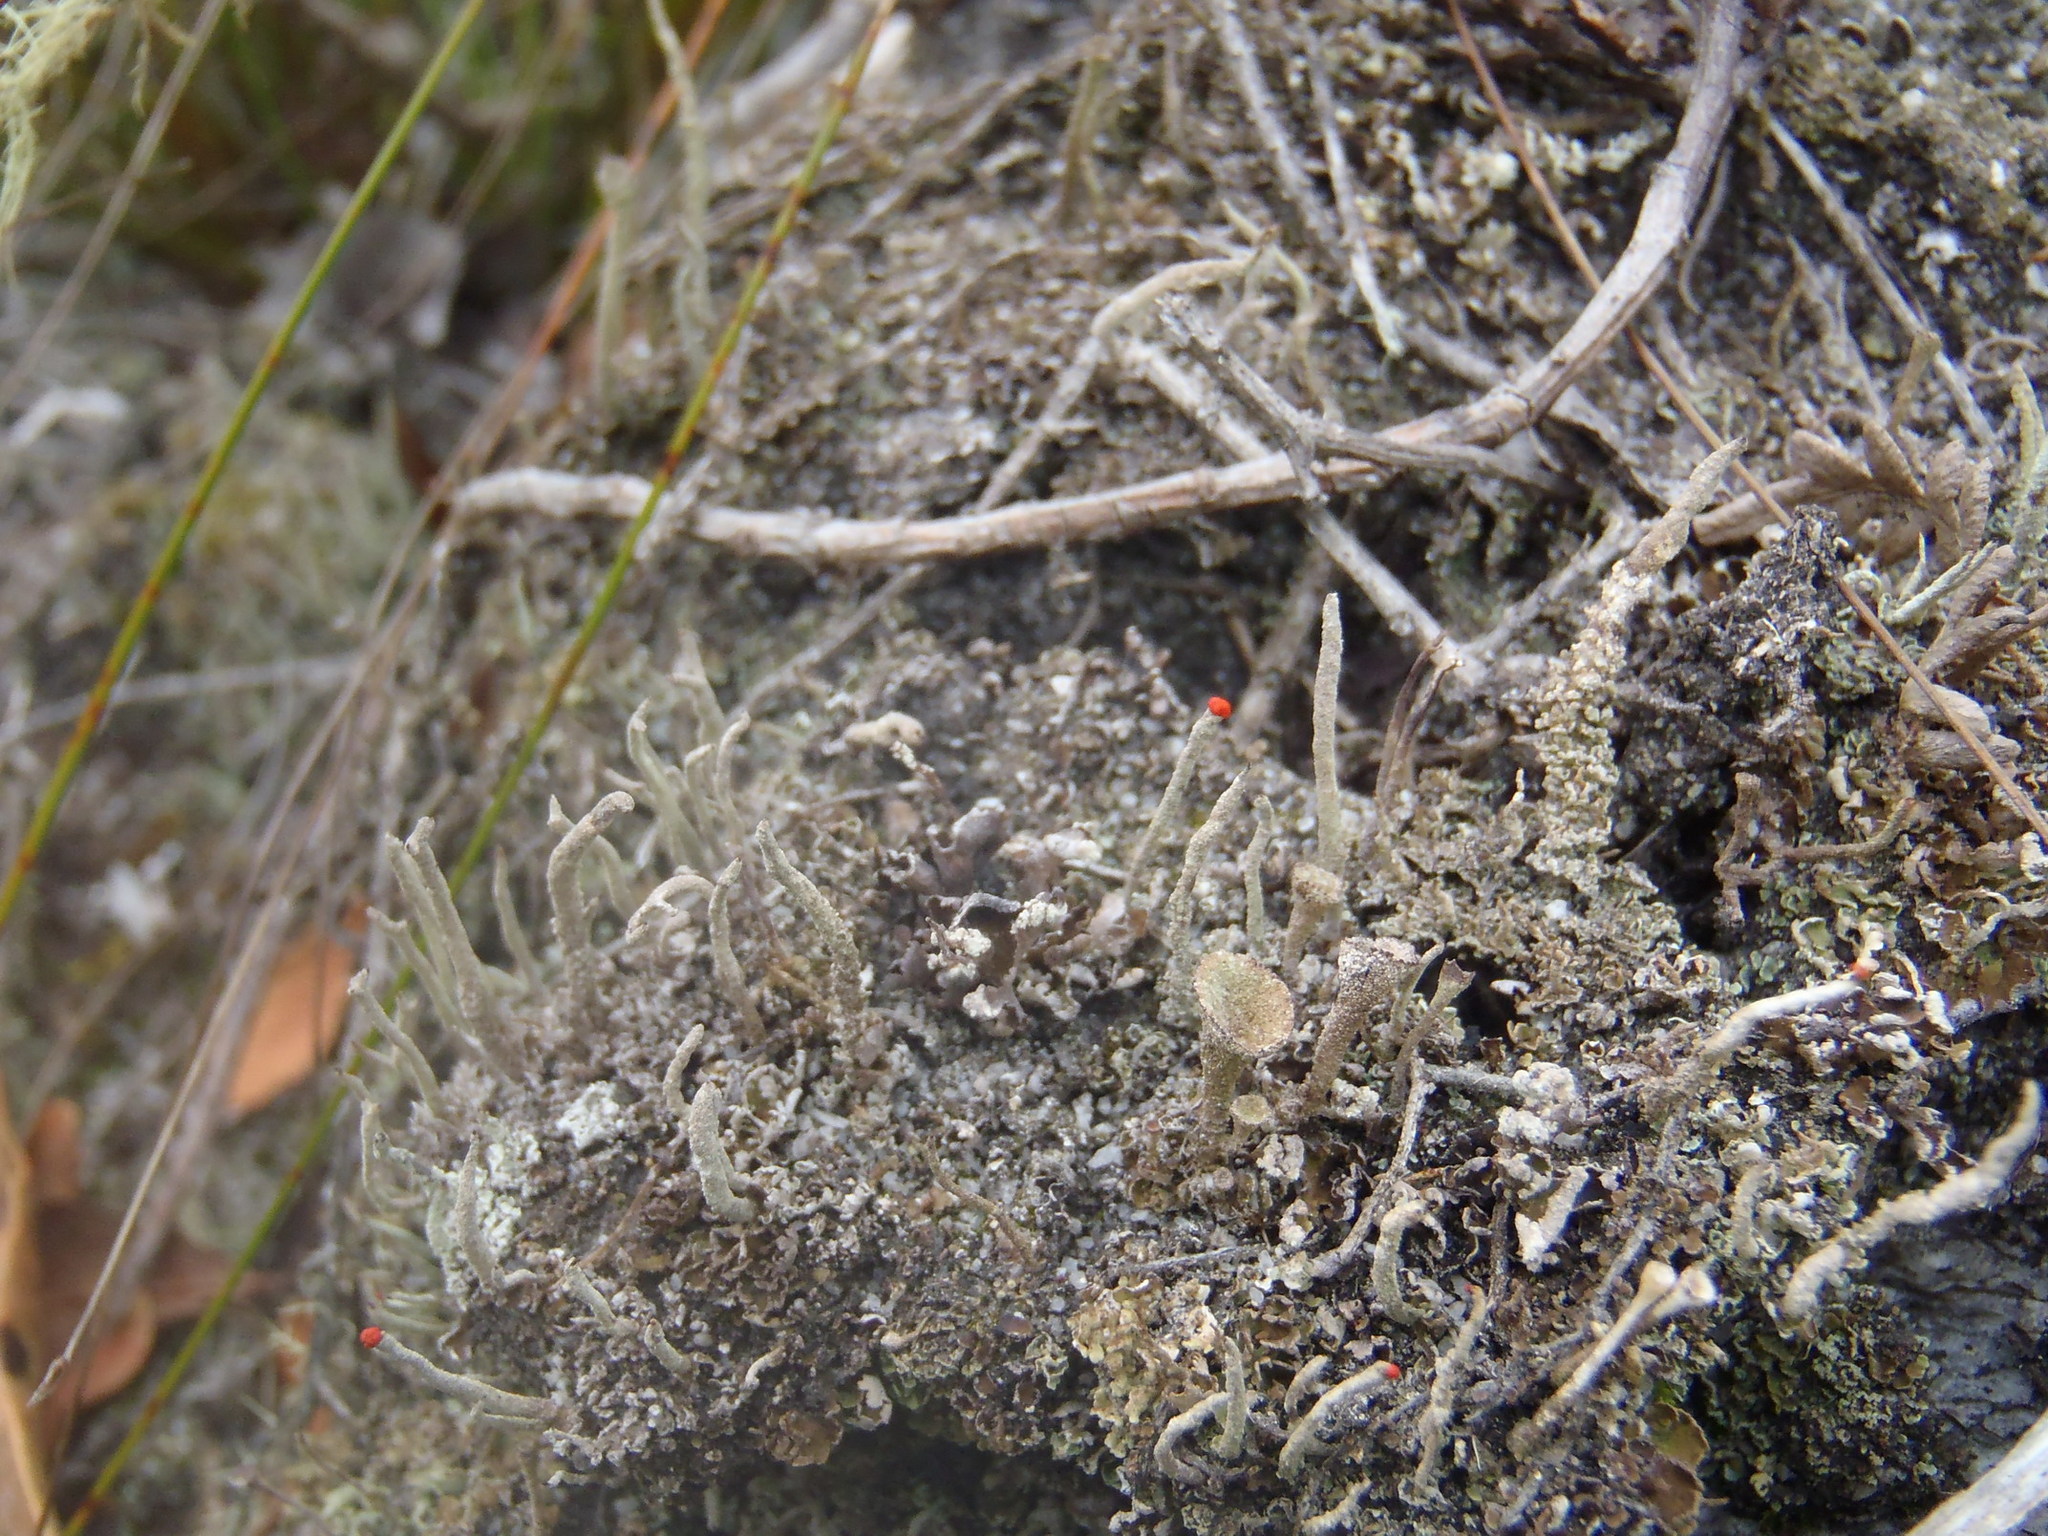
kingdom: Fungi
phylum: Ascomycota
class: Lecanoromycetes
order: Lecanorales
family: Cladoniaceae
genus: Cladonia
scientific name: Cladonia macilenta
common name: Lipstick powderhorn
